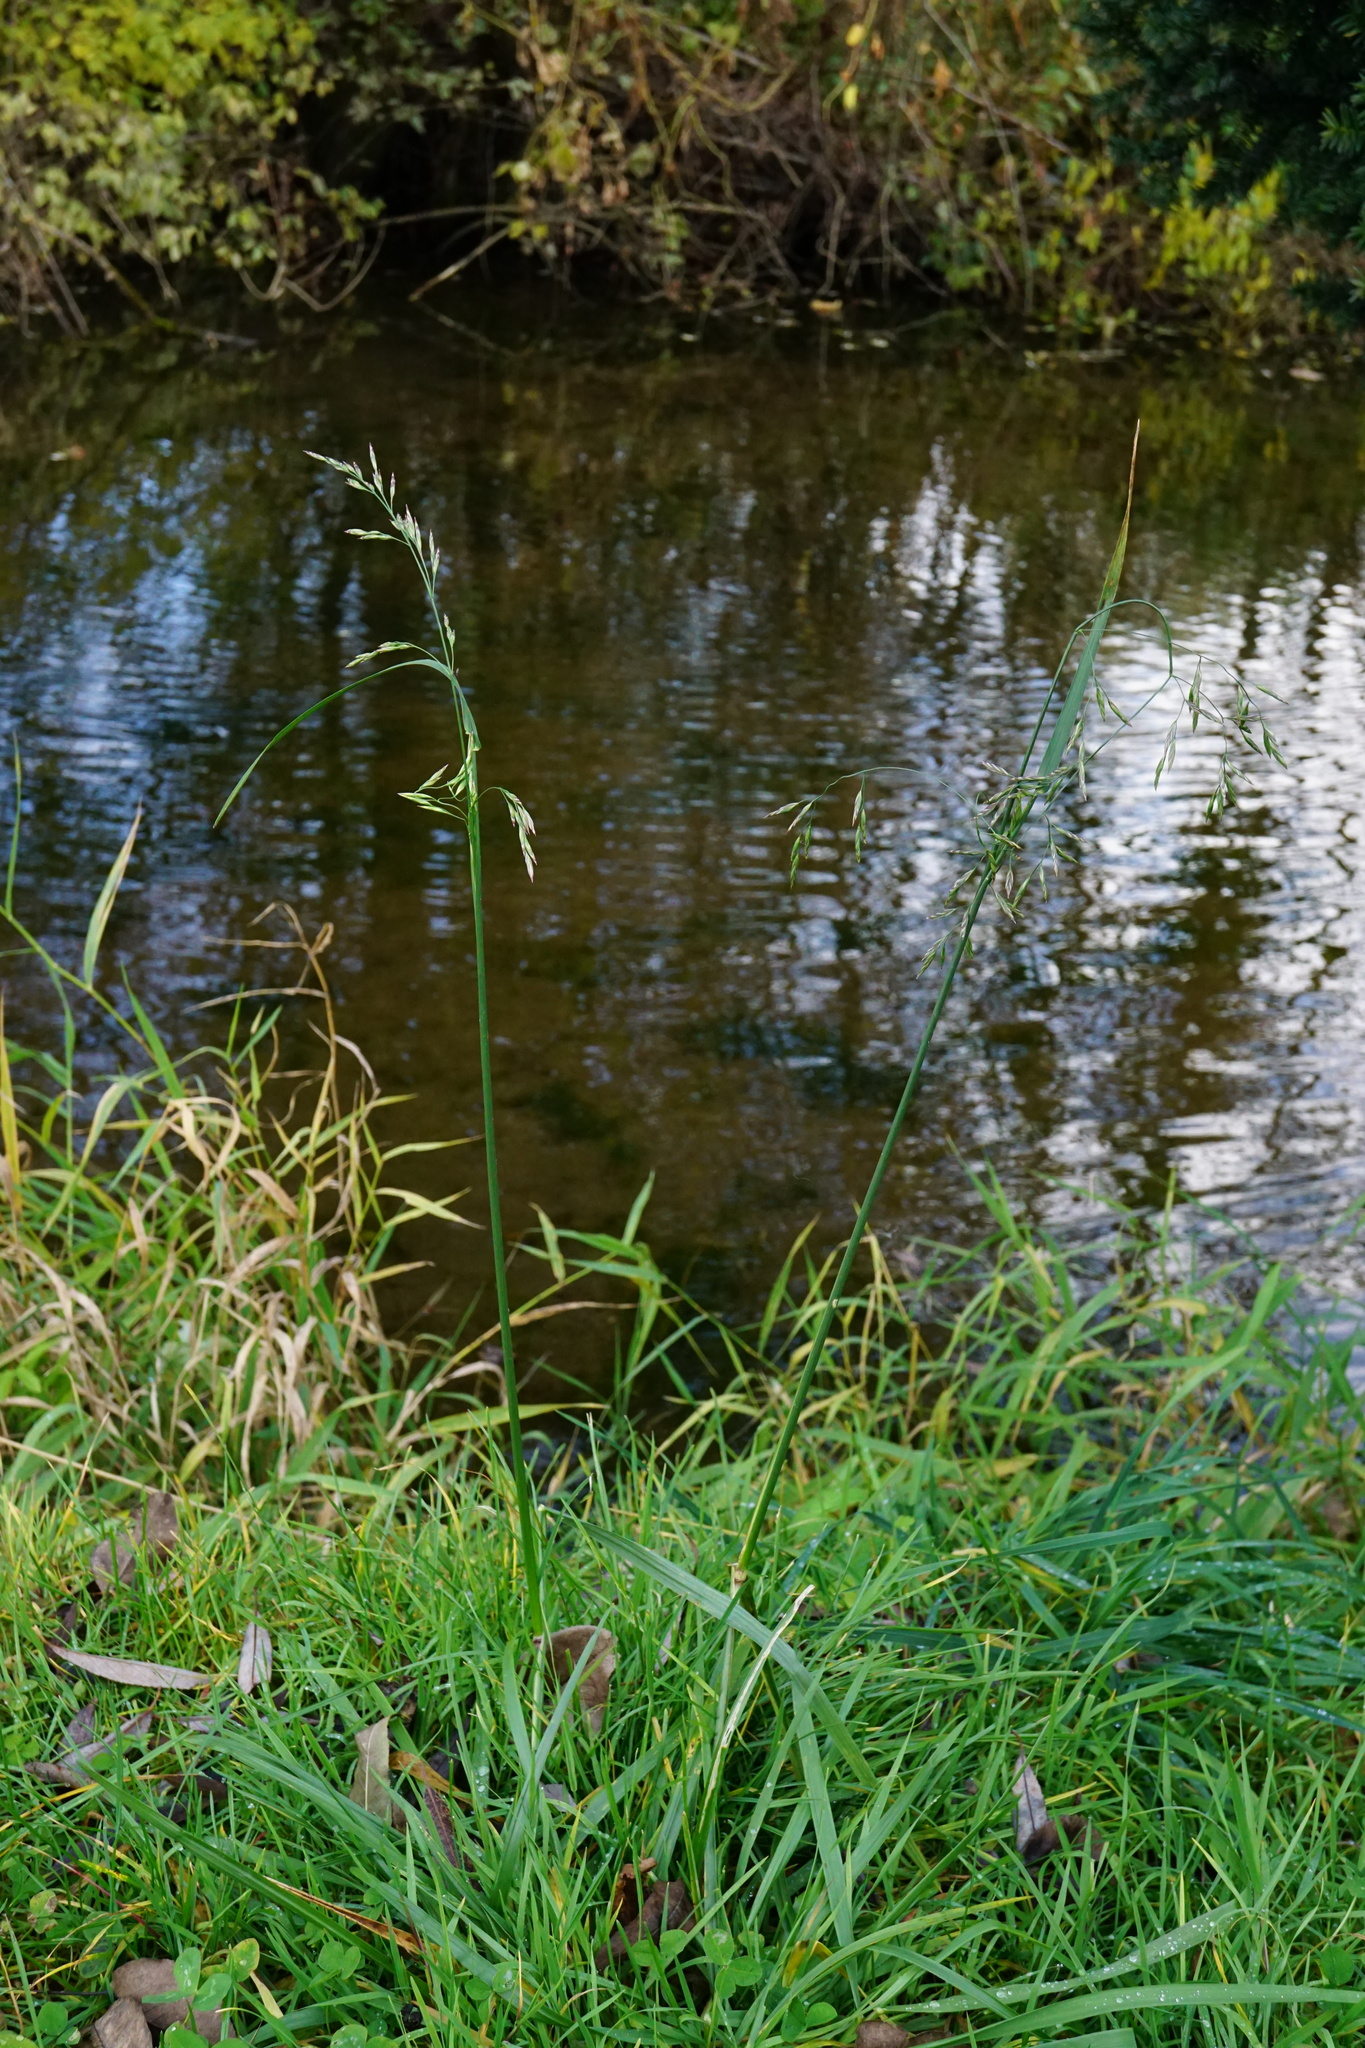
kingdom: Plantae
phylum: Tracheophyta
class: Liliopsida
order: Poales
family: Poaceae
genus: Lolium
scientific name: Lolium arundinaceum
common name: Reed fescue
